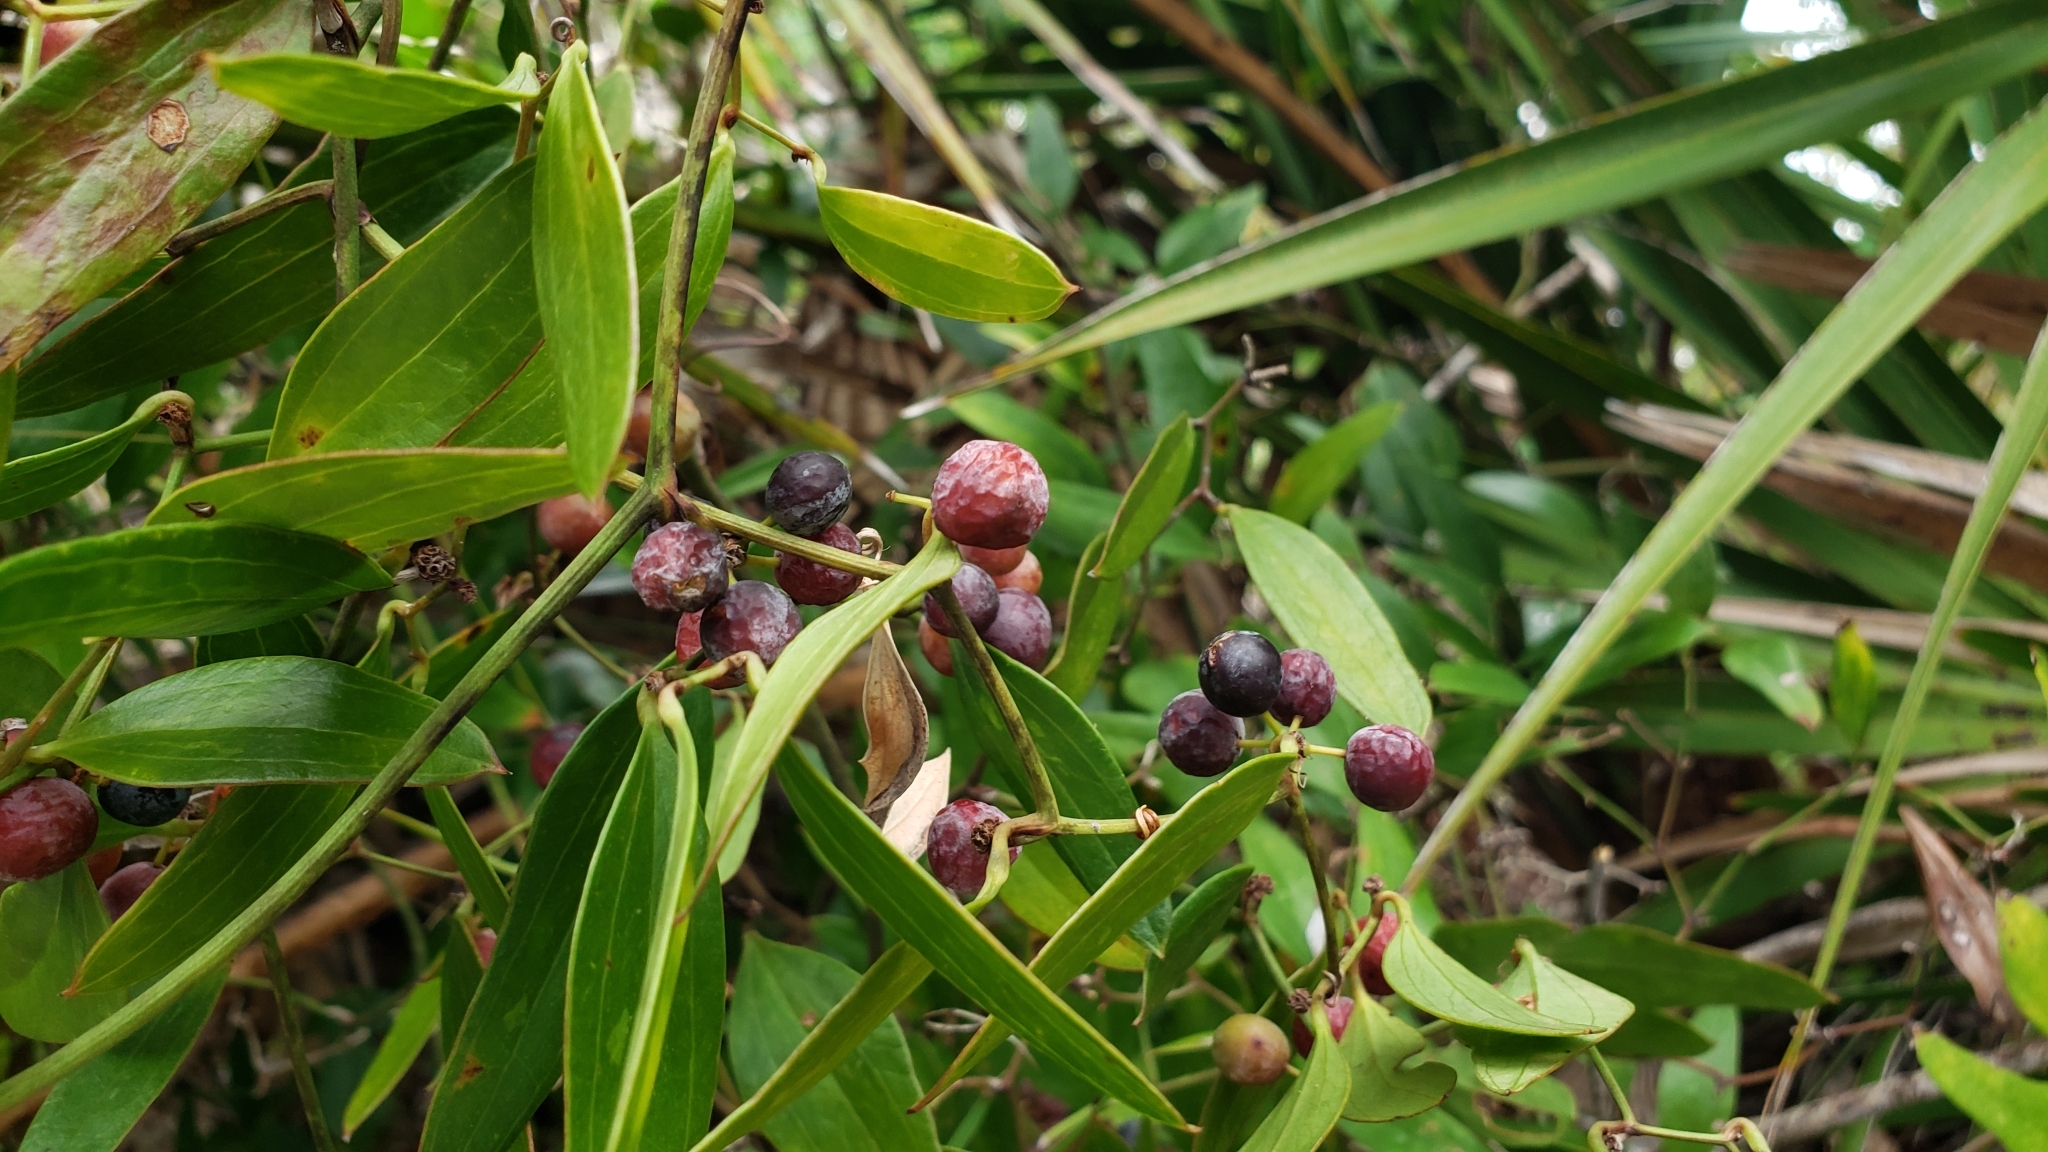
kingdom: Plantae
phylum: Tracheophyta
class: Liliopsida
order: Liliales
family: Smilacaceae
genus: Smilax
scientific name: Smilax auriculata
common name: Wild bamboo
